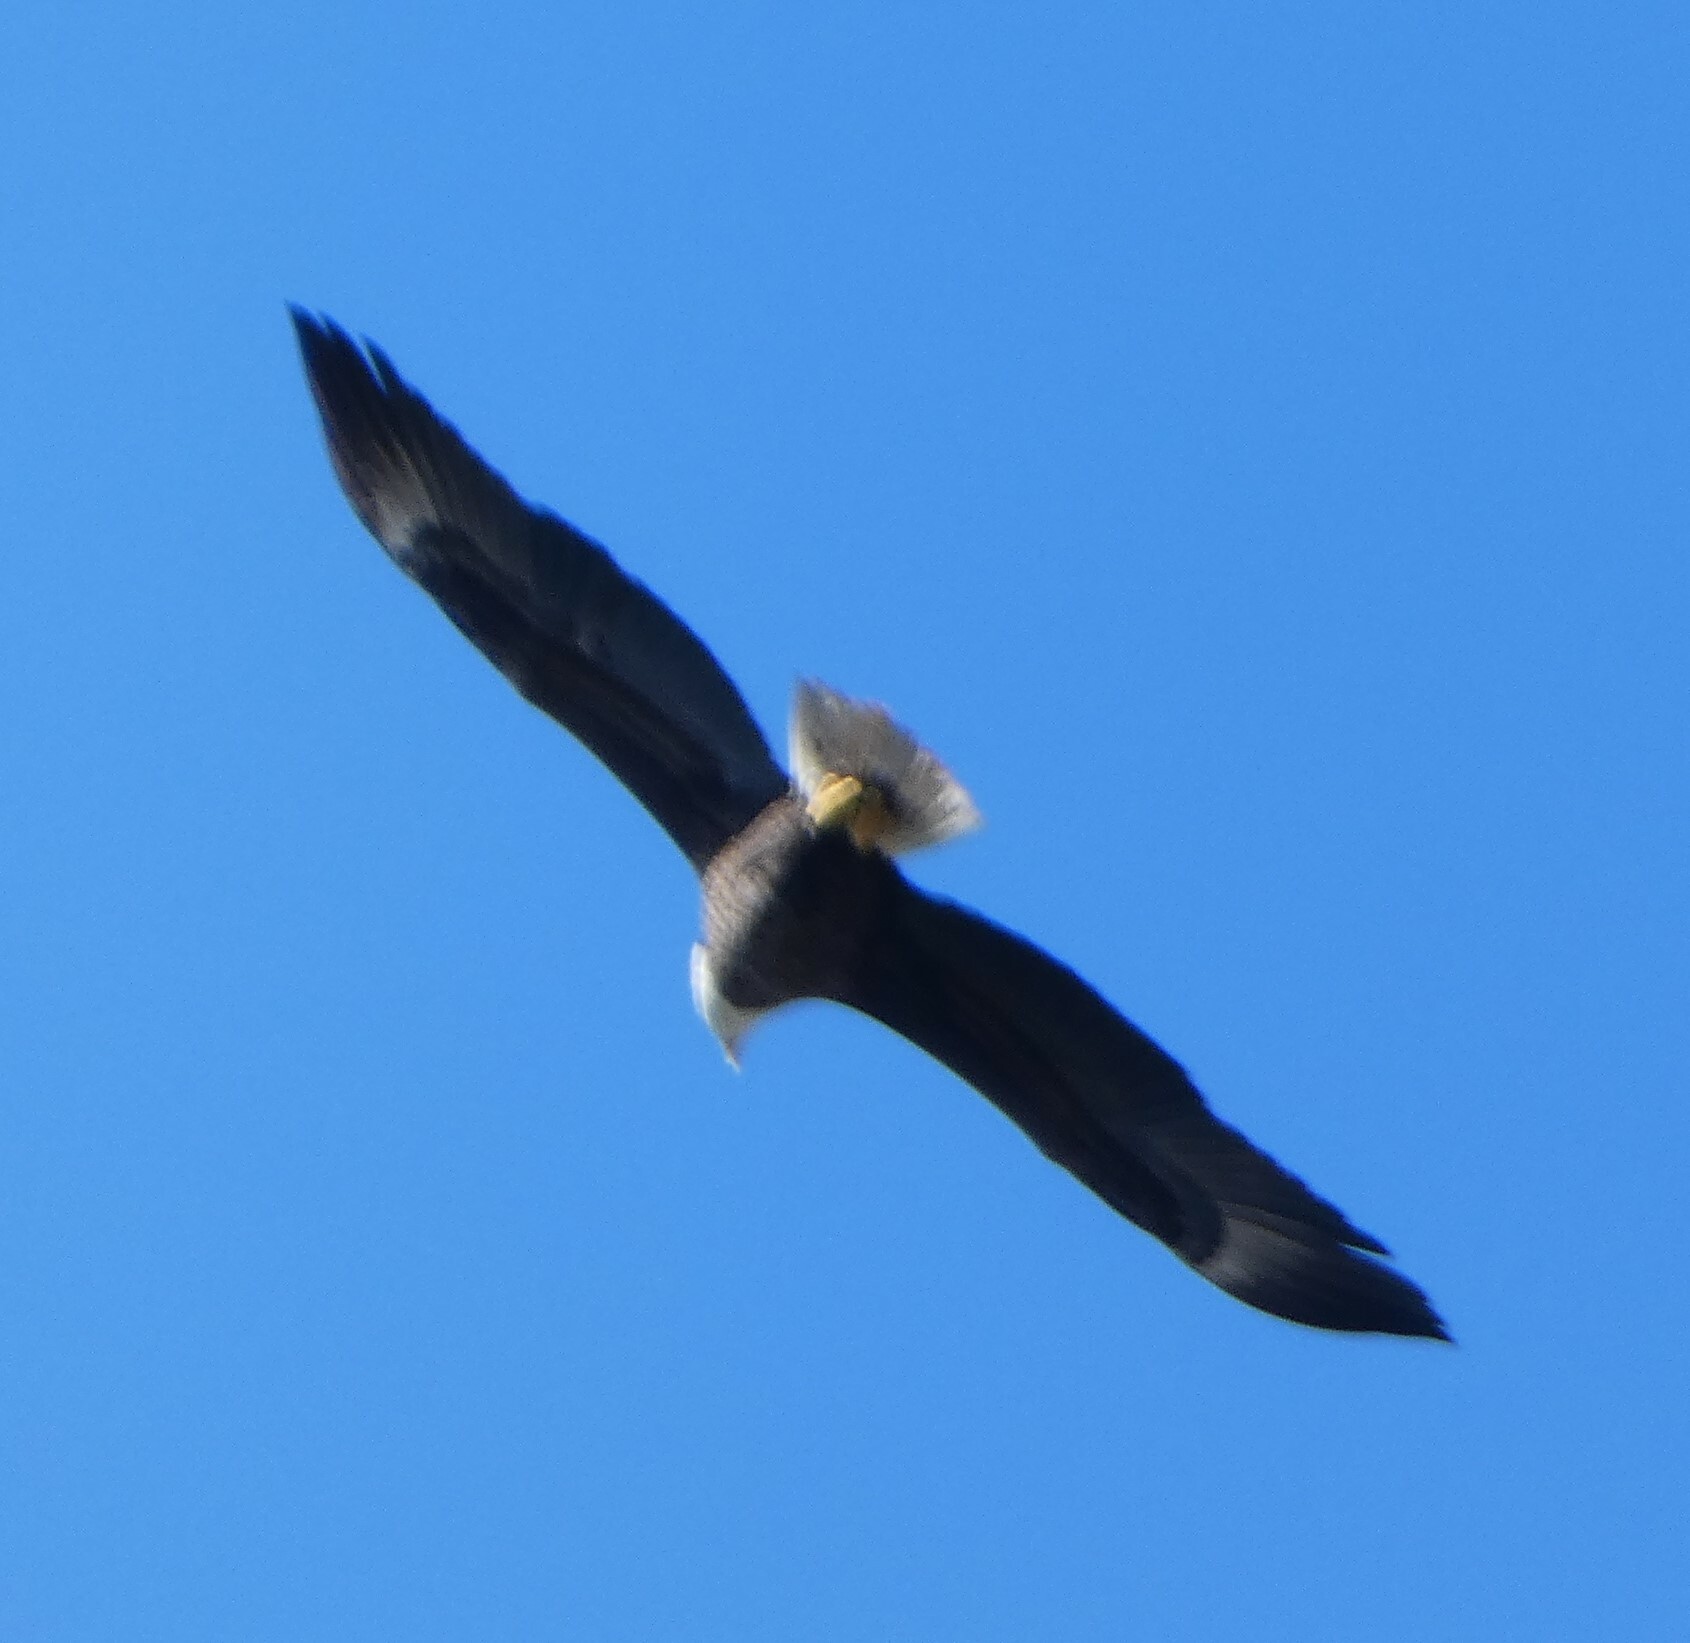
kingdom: Animalia
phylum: Chordata
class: Aves
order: Accipitriformes
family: Accipitridae
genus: Haliaeetus
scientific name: Haliaeetus leucocephalus
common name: Bald eagle
